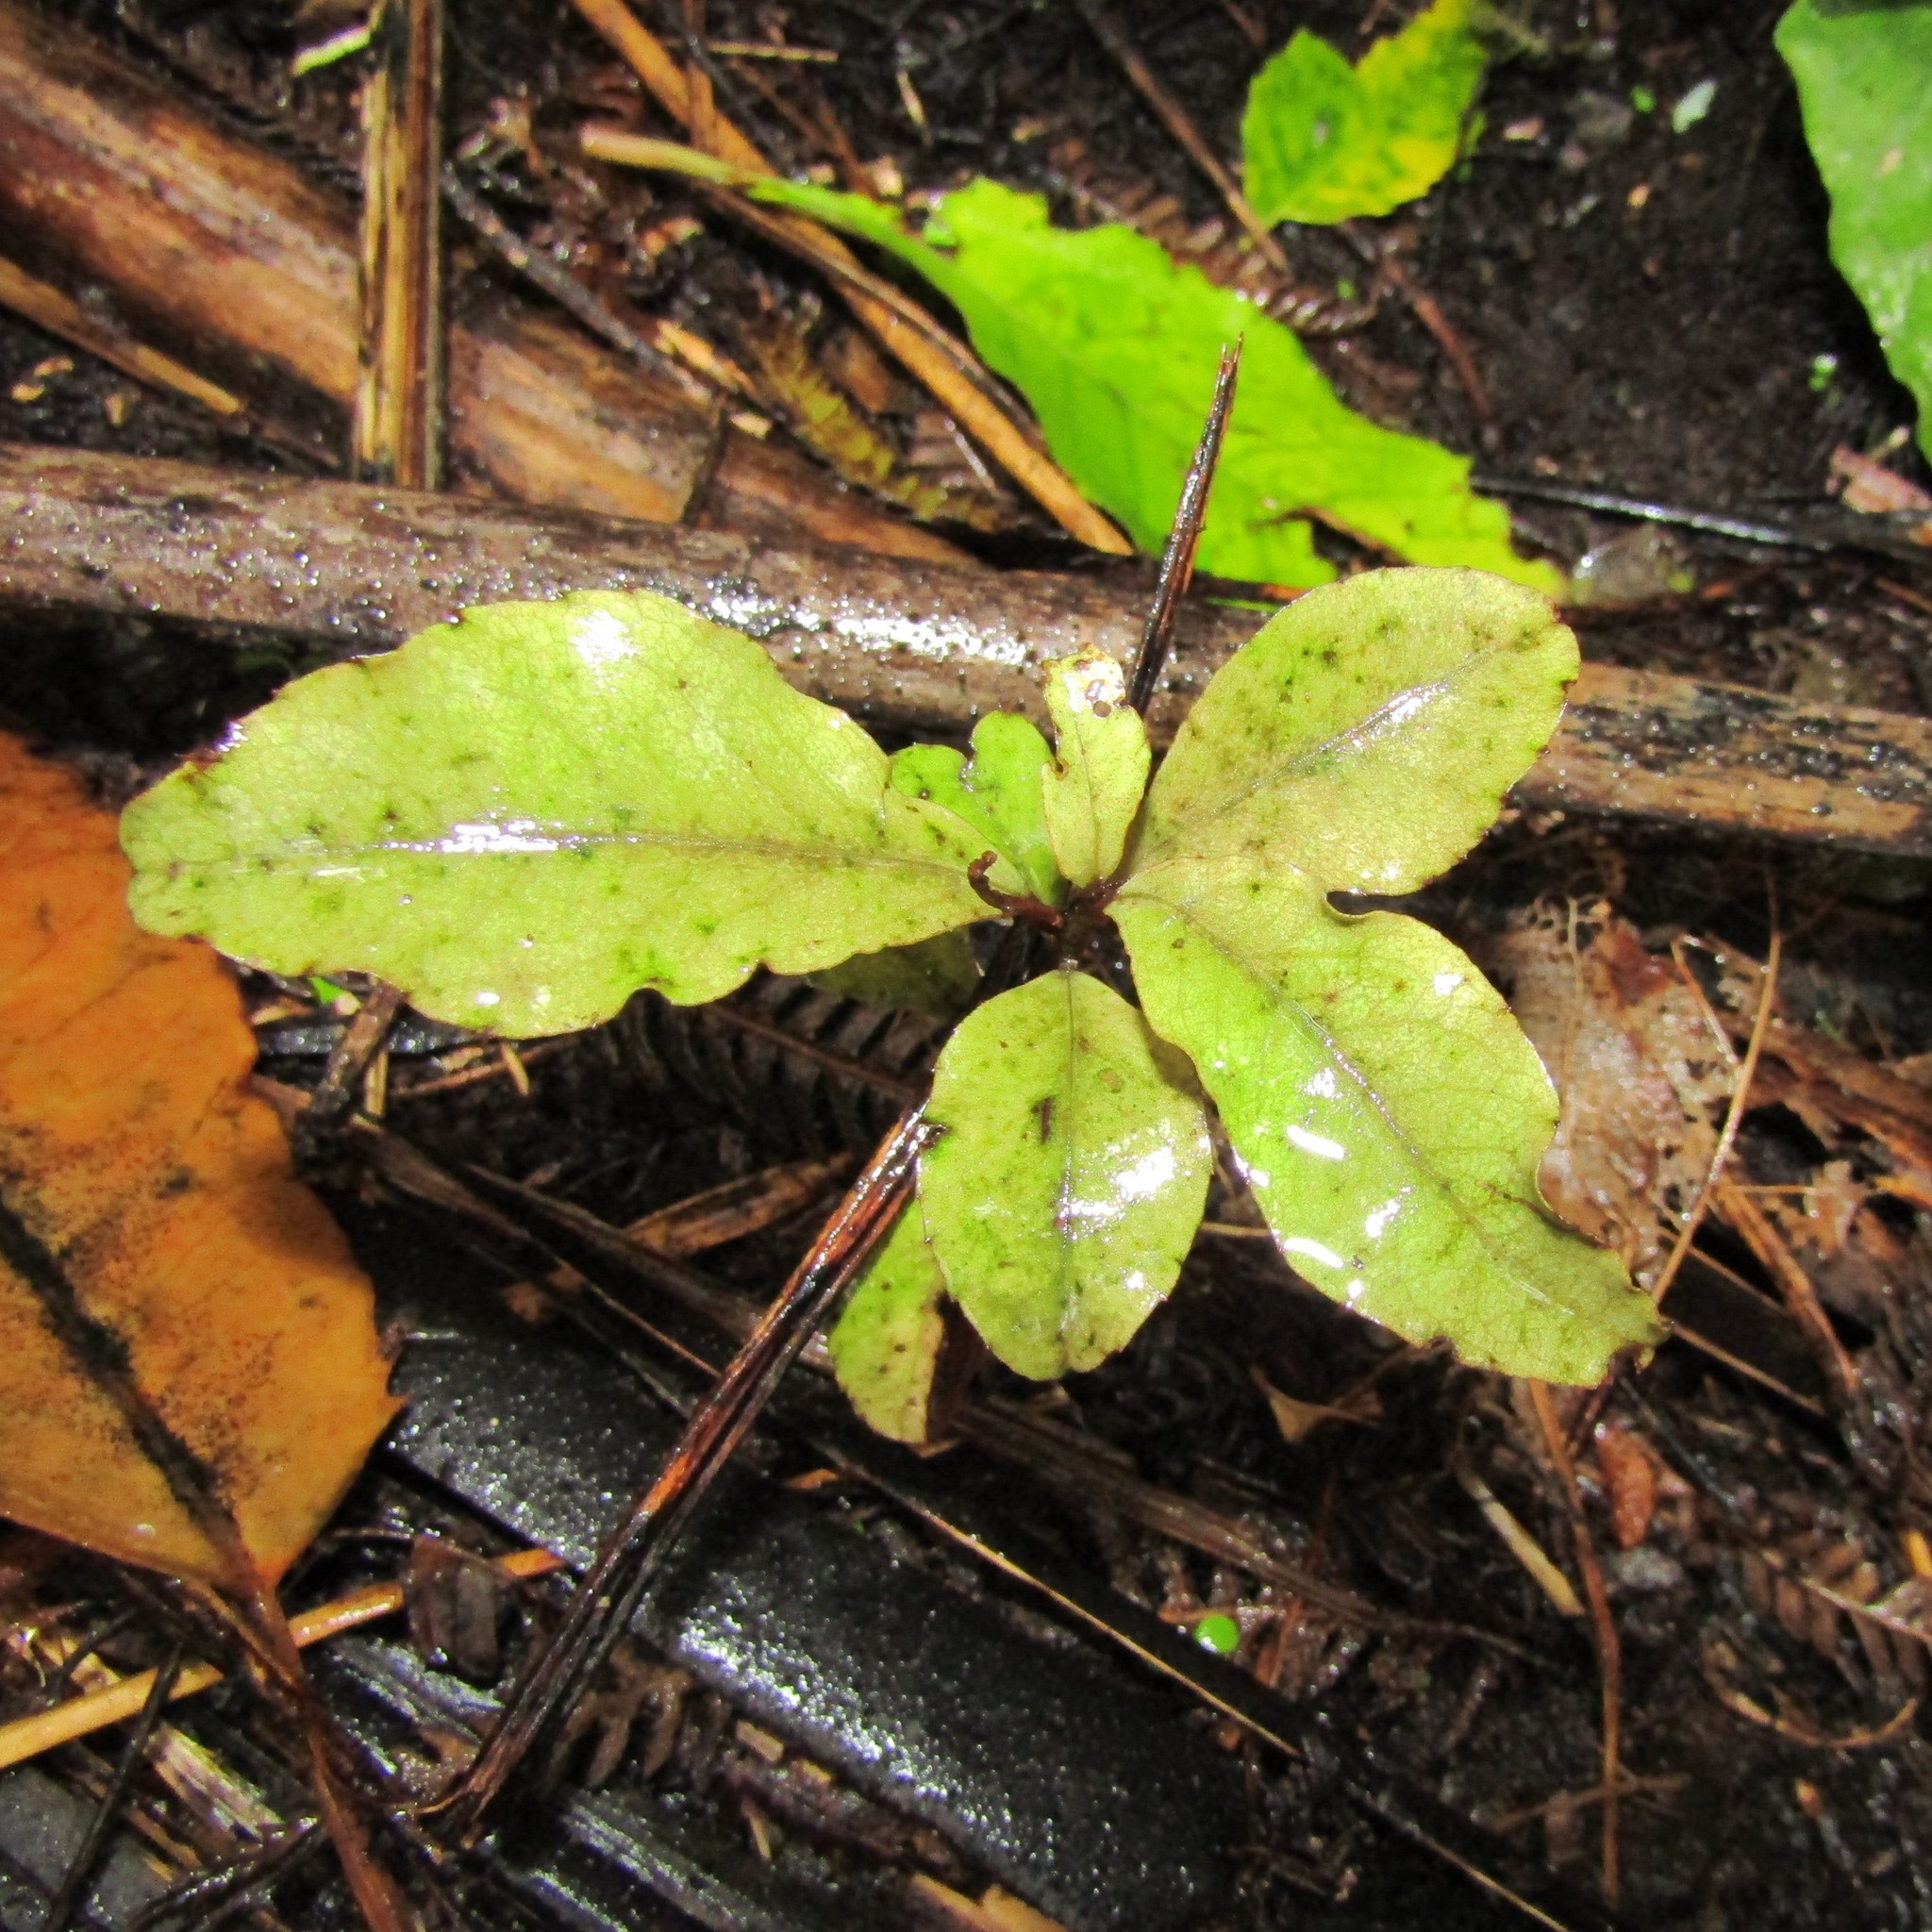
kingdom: Plantae
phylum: Tracheophyta
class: Magnoliopsida
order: Ericales
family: Primulaceae
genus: Myrsine
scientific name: Myrsine australis
